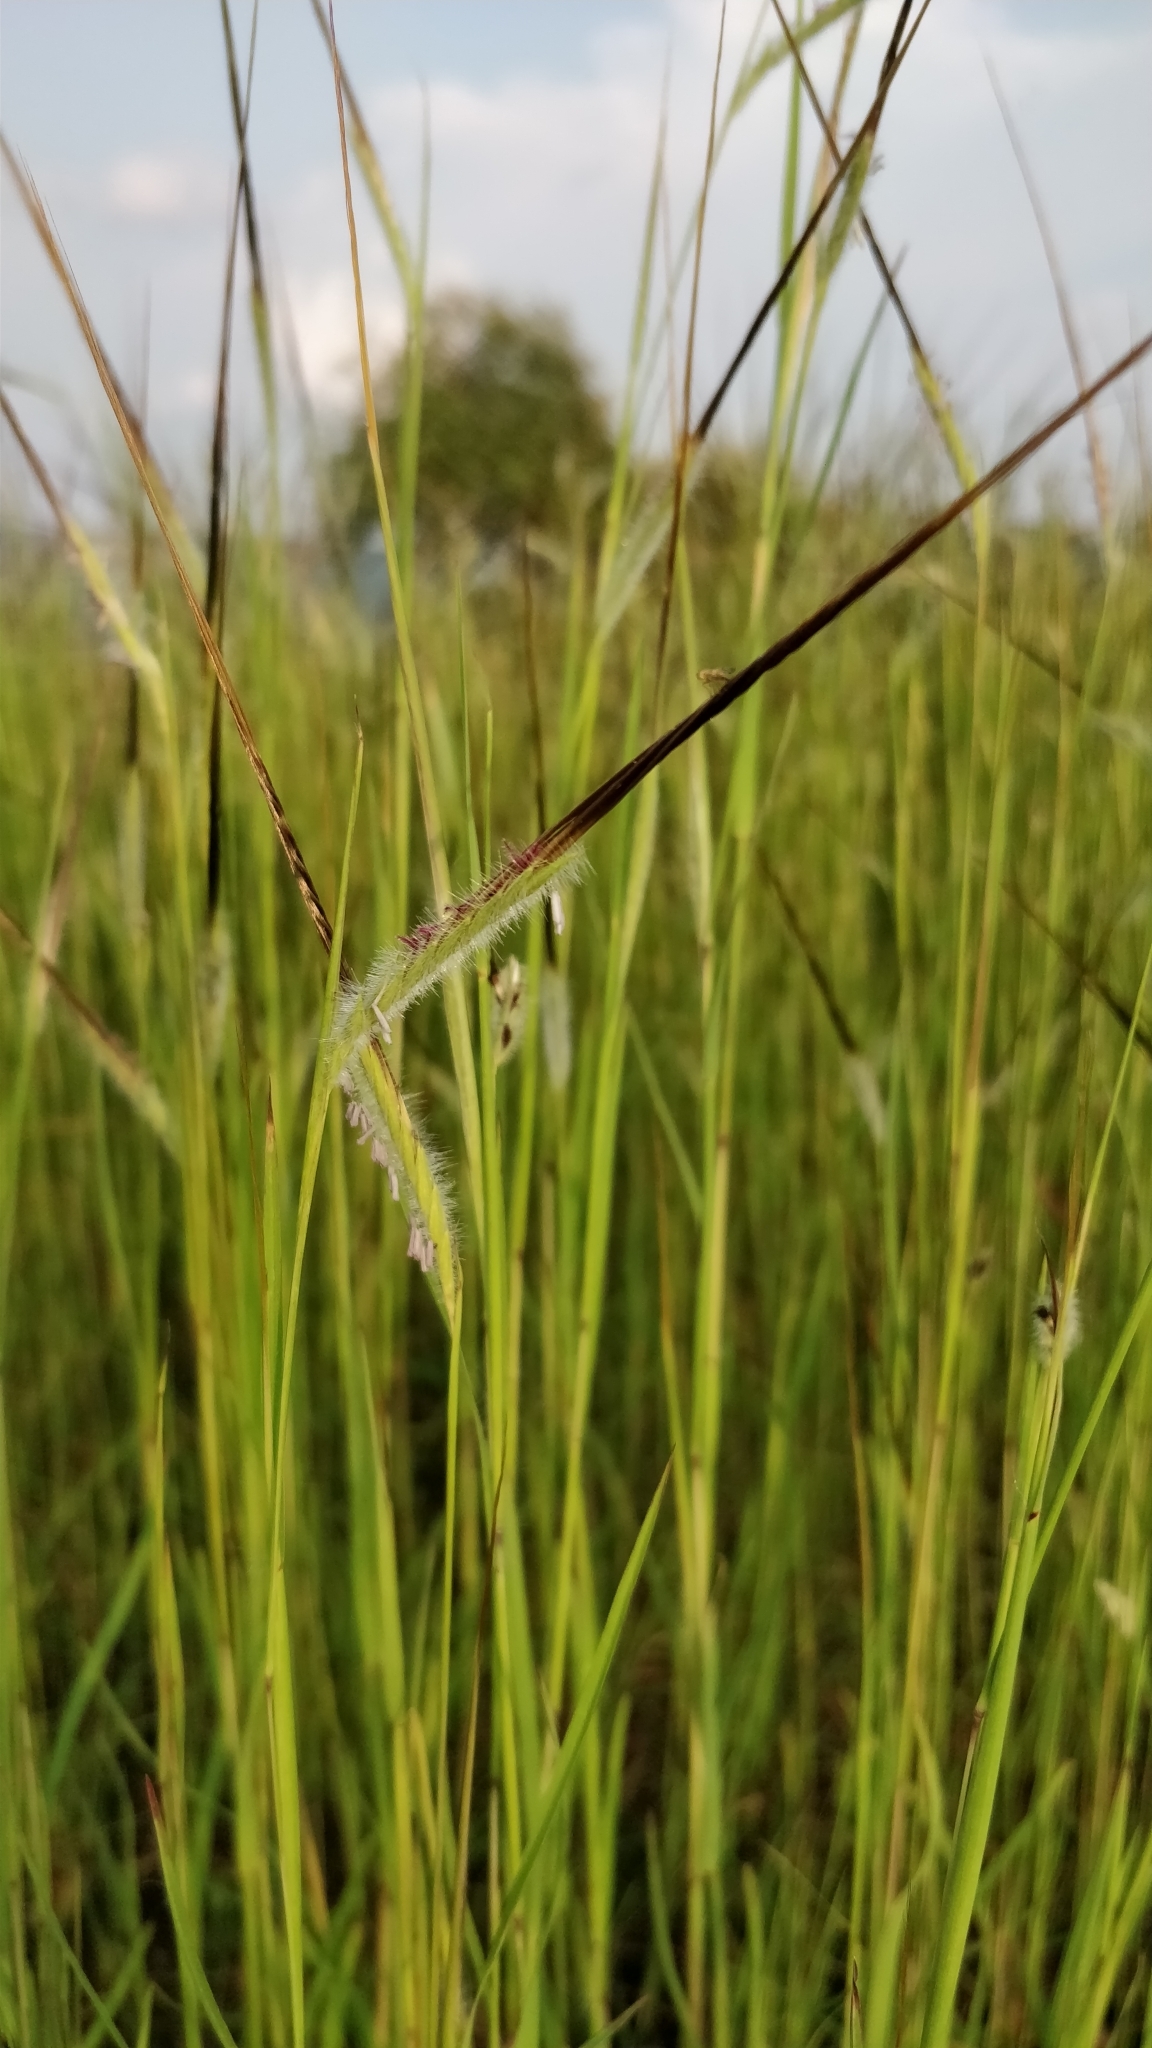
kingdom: Plantae
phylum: Tracheophyta
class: Liliopsida
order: Poales
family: Poaceae
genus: Heteropogon
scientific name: Heteropogon contortus
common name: Tanglehead
